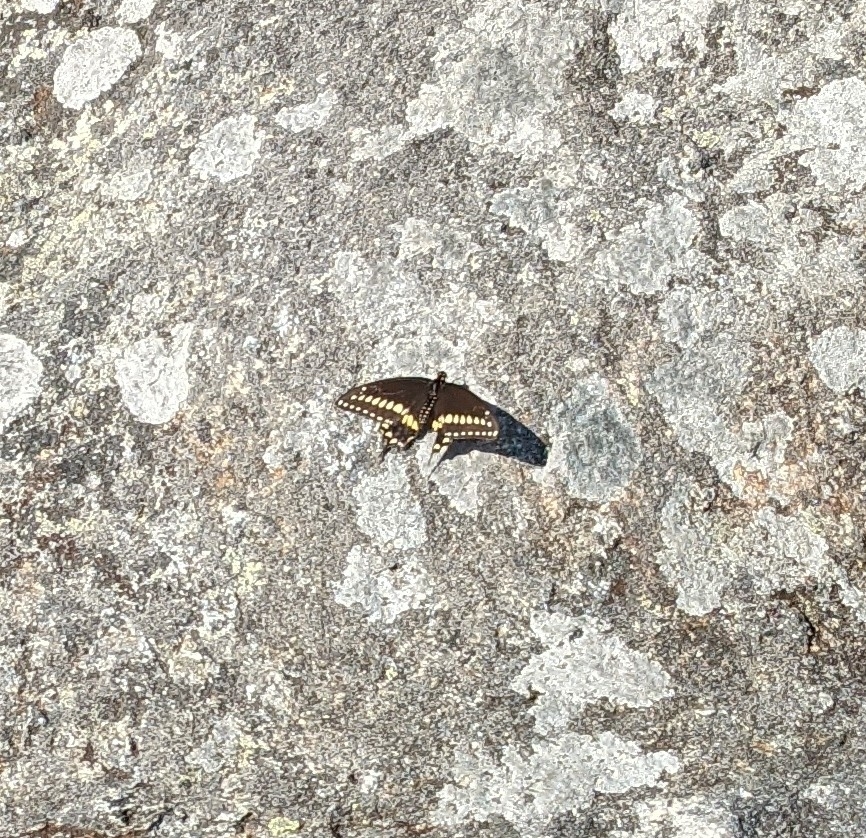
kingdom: Animalia
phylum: Arthropoda
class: Insecta
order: Lepidoptera
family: Papilionidae
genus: Papilio
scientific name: Papilio polyxenes
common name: Black swallowtail
